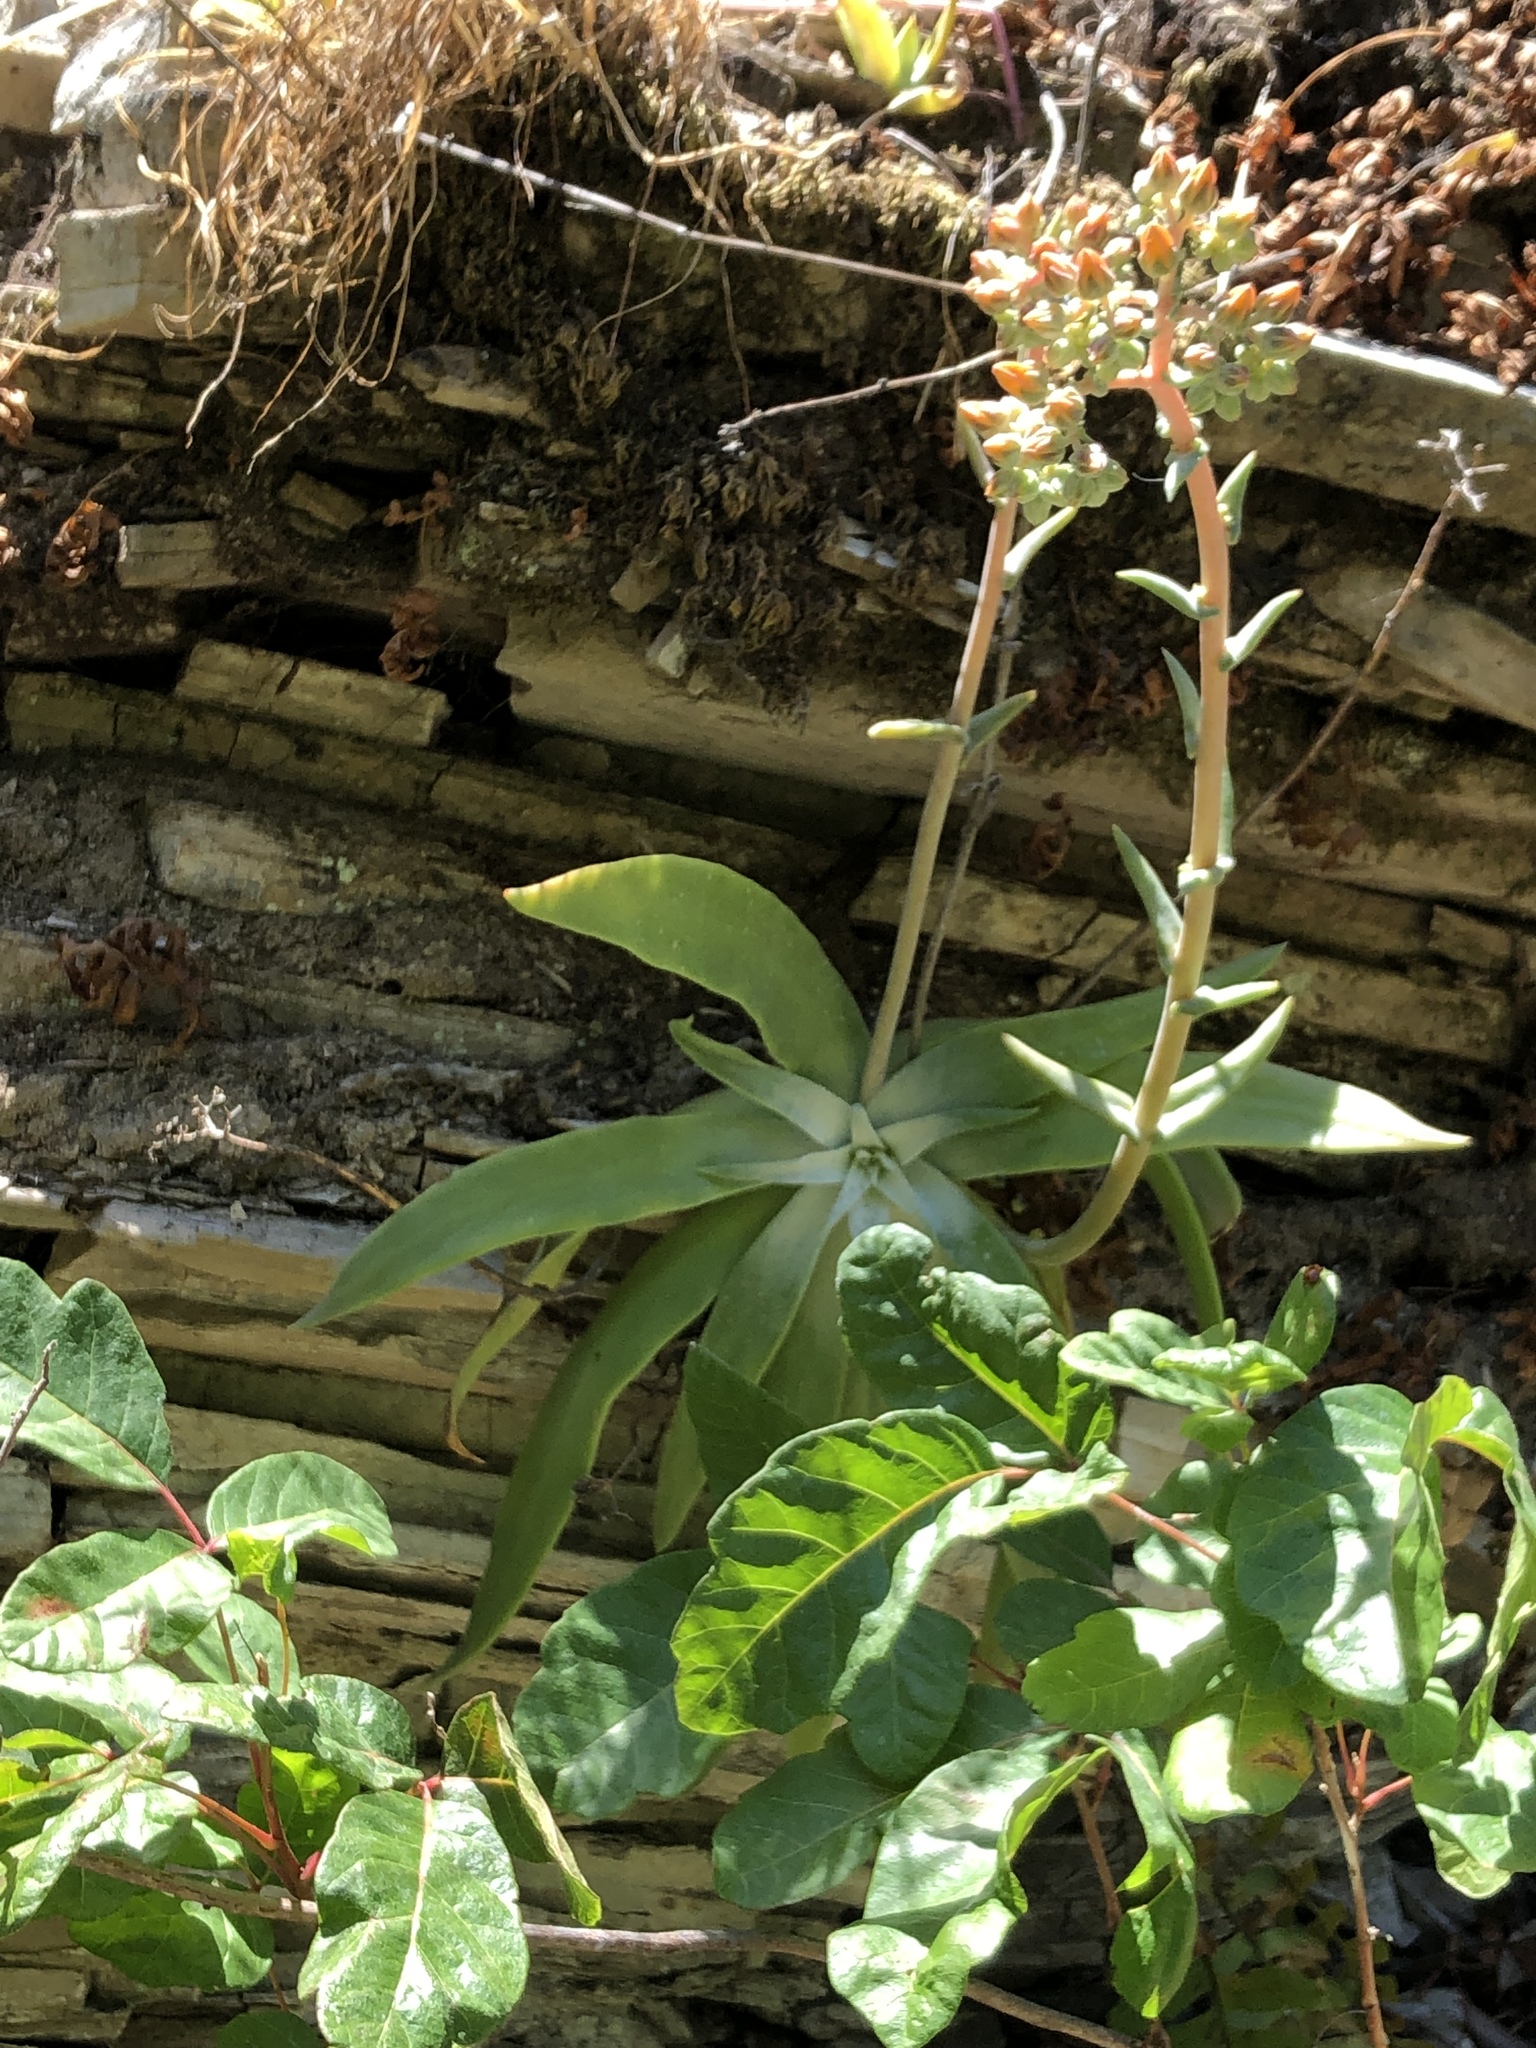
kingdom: Plantae
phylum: Tracheophyta
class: Magnoliopsida
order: Saxifragales
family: Crassulaceae
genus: Dudleya
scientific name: Dudleya lanceolata
